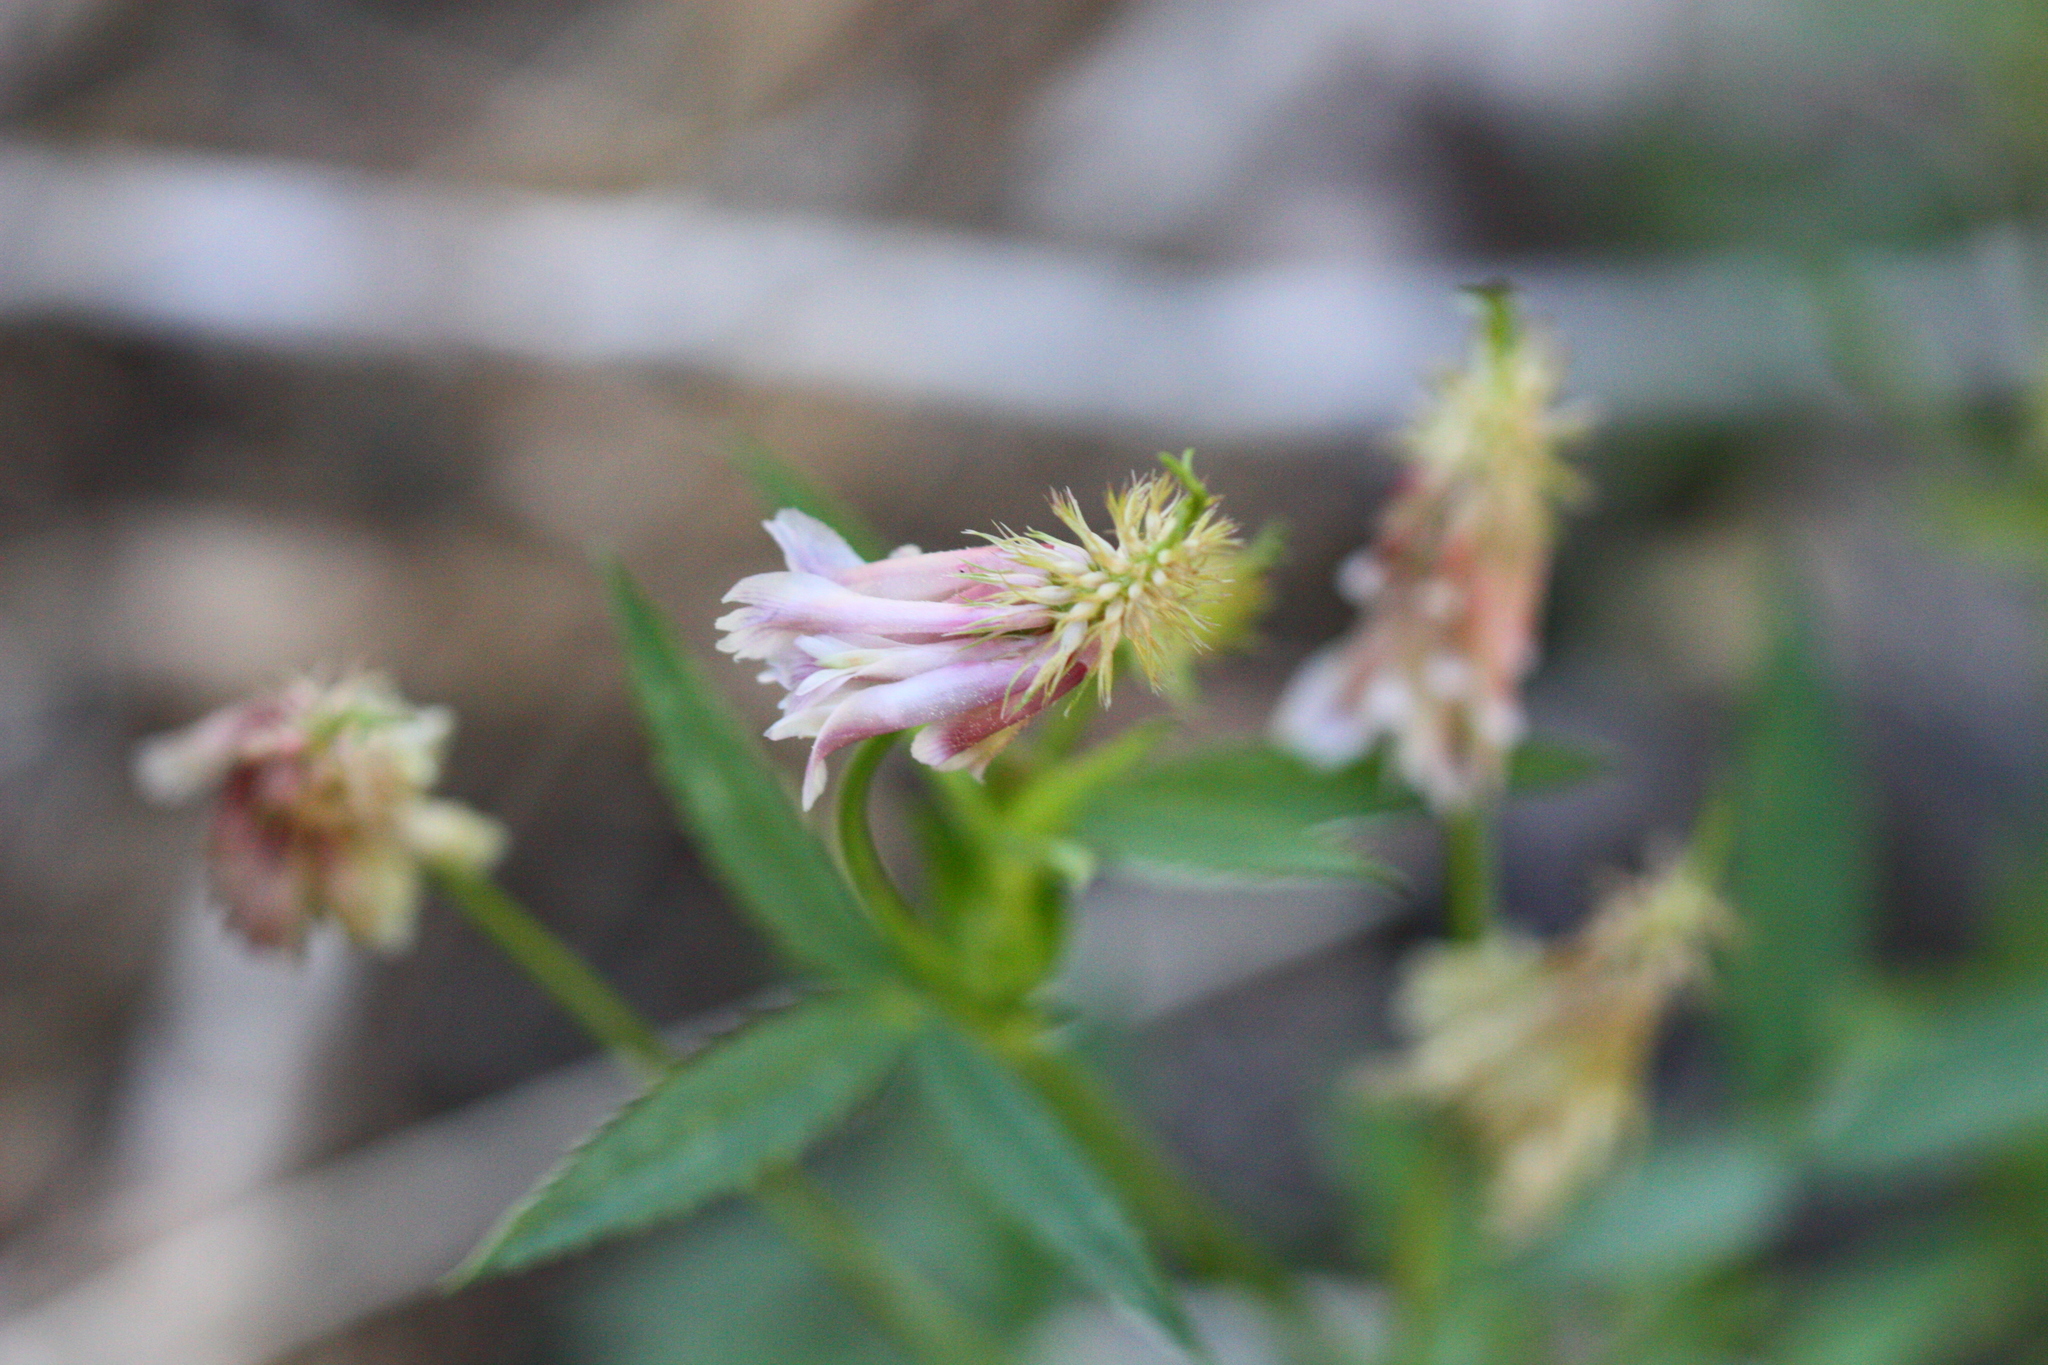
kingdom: Plantae
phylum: Tracheophyta
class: Magnoliopsida
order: Fabales
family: Fabaceae
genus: Trifolium
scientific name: Trifolium productum
